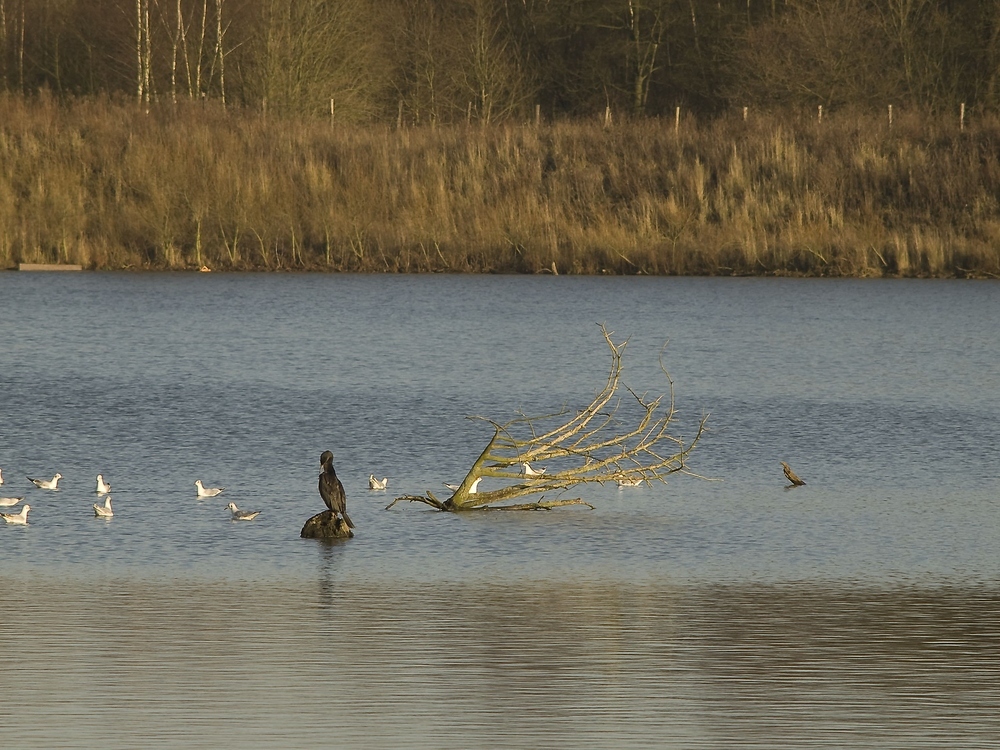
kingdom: Animalia
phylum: Chordata
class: Aves
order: Suliformes
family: Phalacrocoracidae
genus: Phalacrocorax
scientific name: Phalacrocorax carbo
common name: Great cormorant
